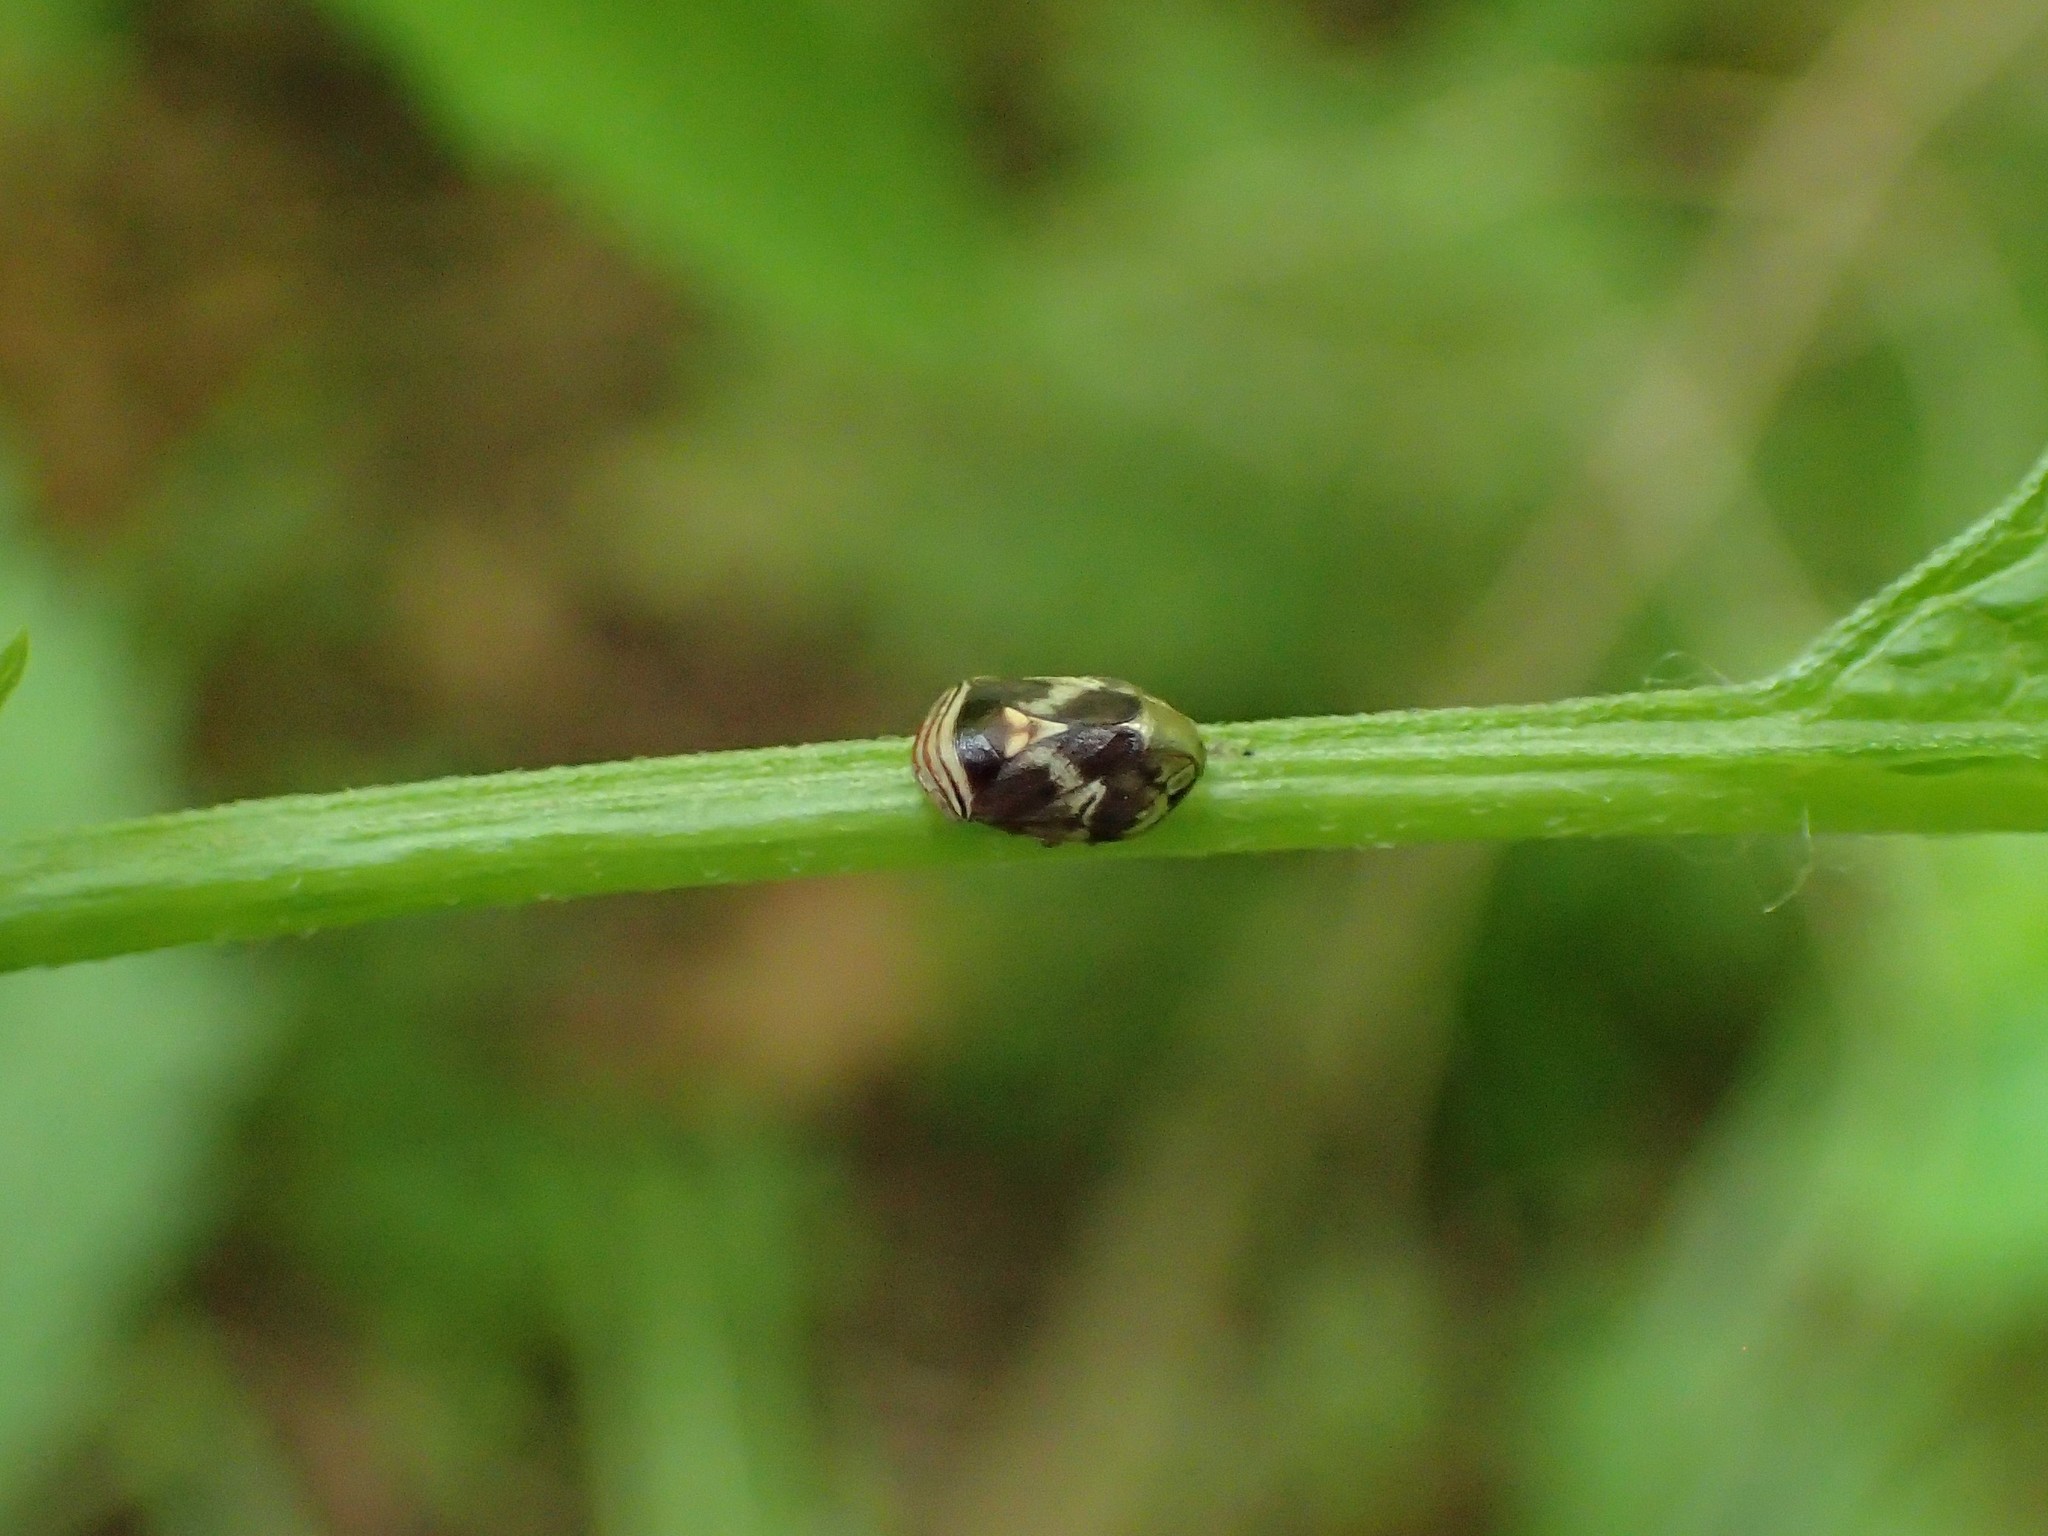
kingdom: Animalia
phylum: Arthropoda
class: Insecta
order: Hemiptera
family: Clastopteridae
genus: Clastoptera
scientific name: Clastoptera obtusa
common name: Alder spittlebug
